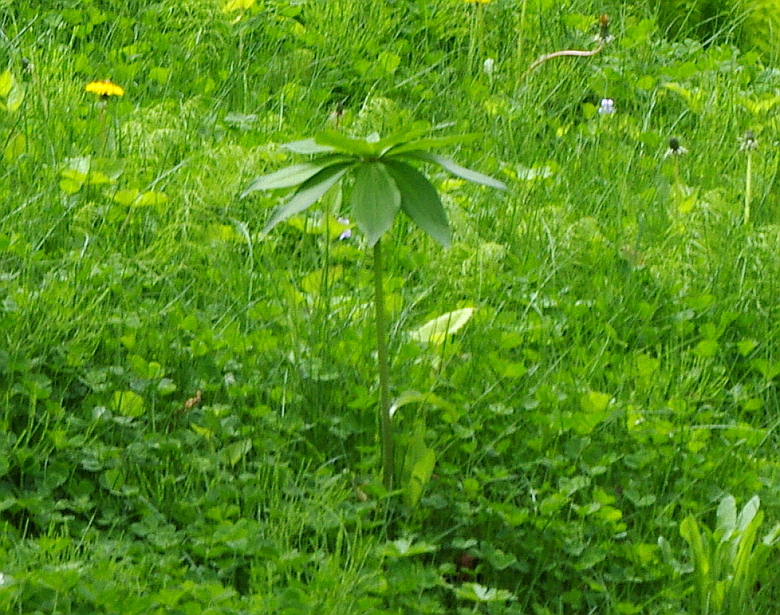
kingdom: Plantae
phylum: Tracheophyta
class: Liliopsida
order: Liliales
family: Liliaceae
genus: Lilium
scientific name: Lilium distichum
